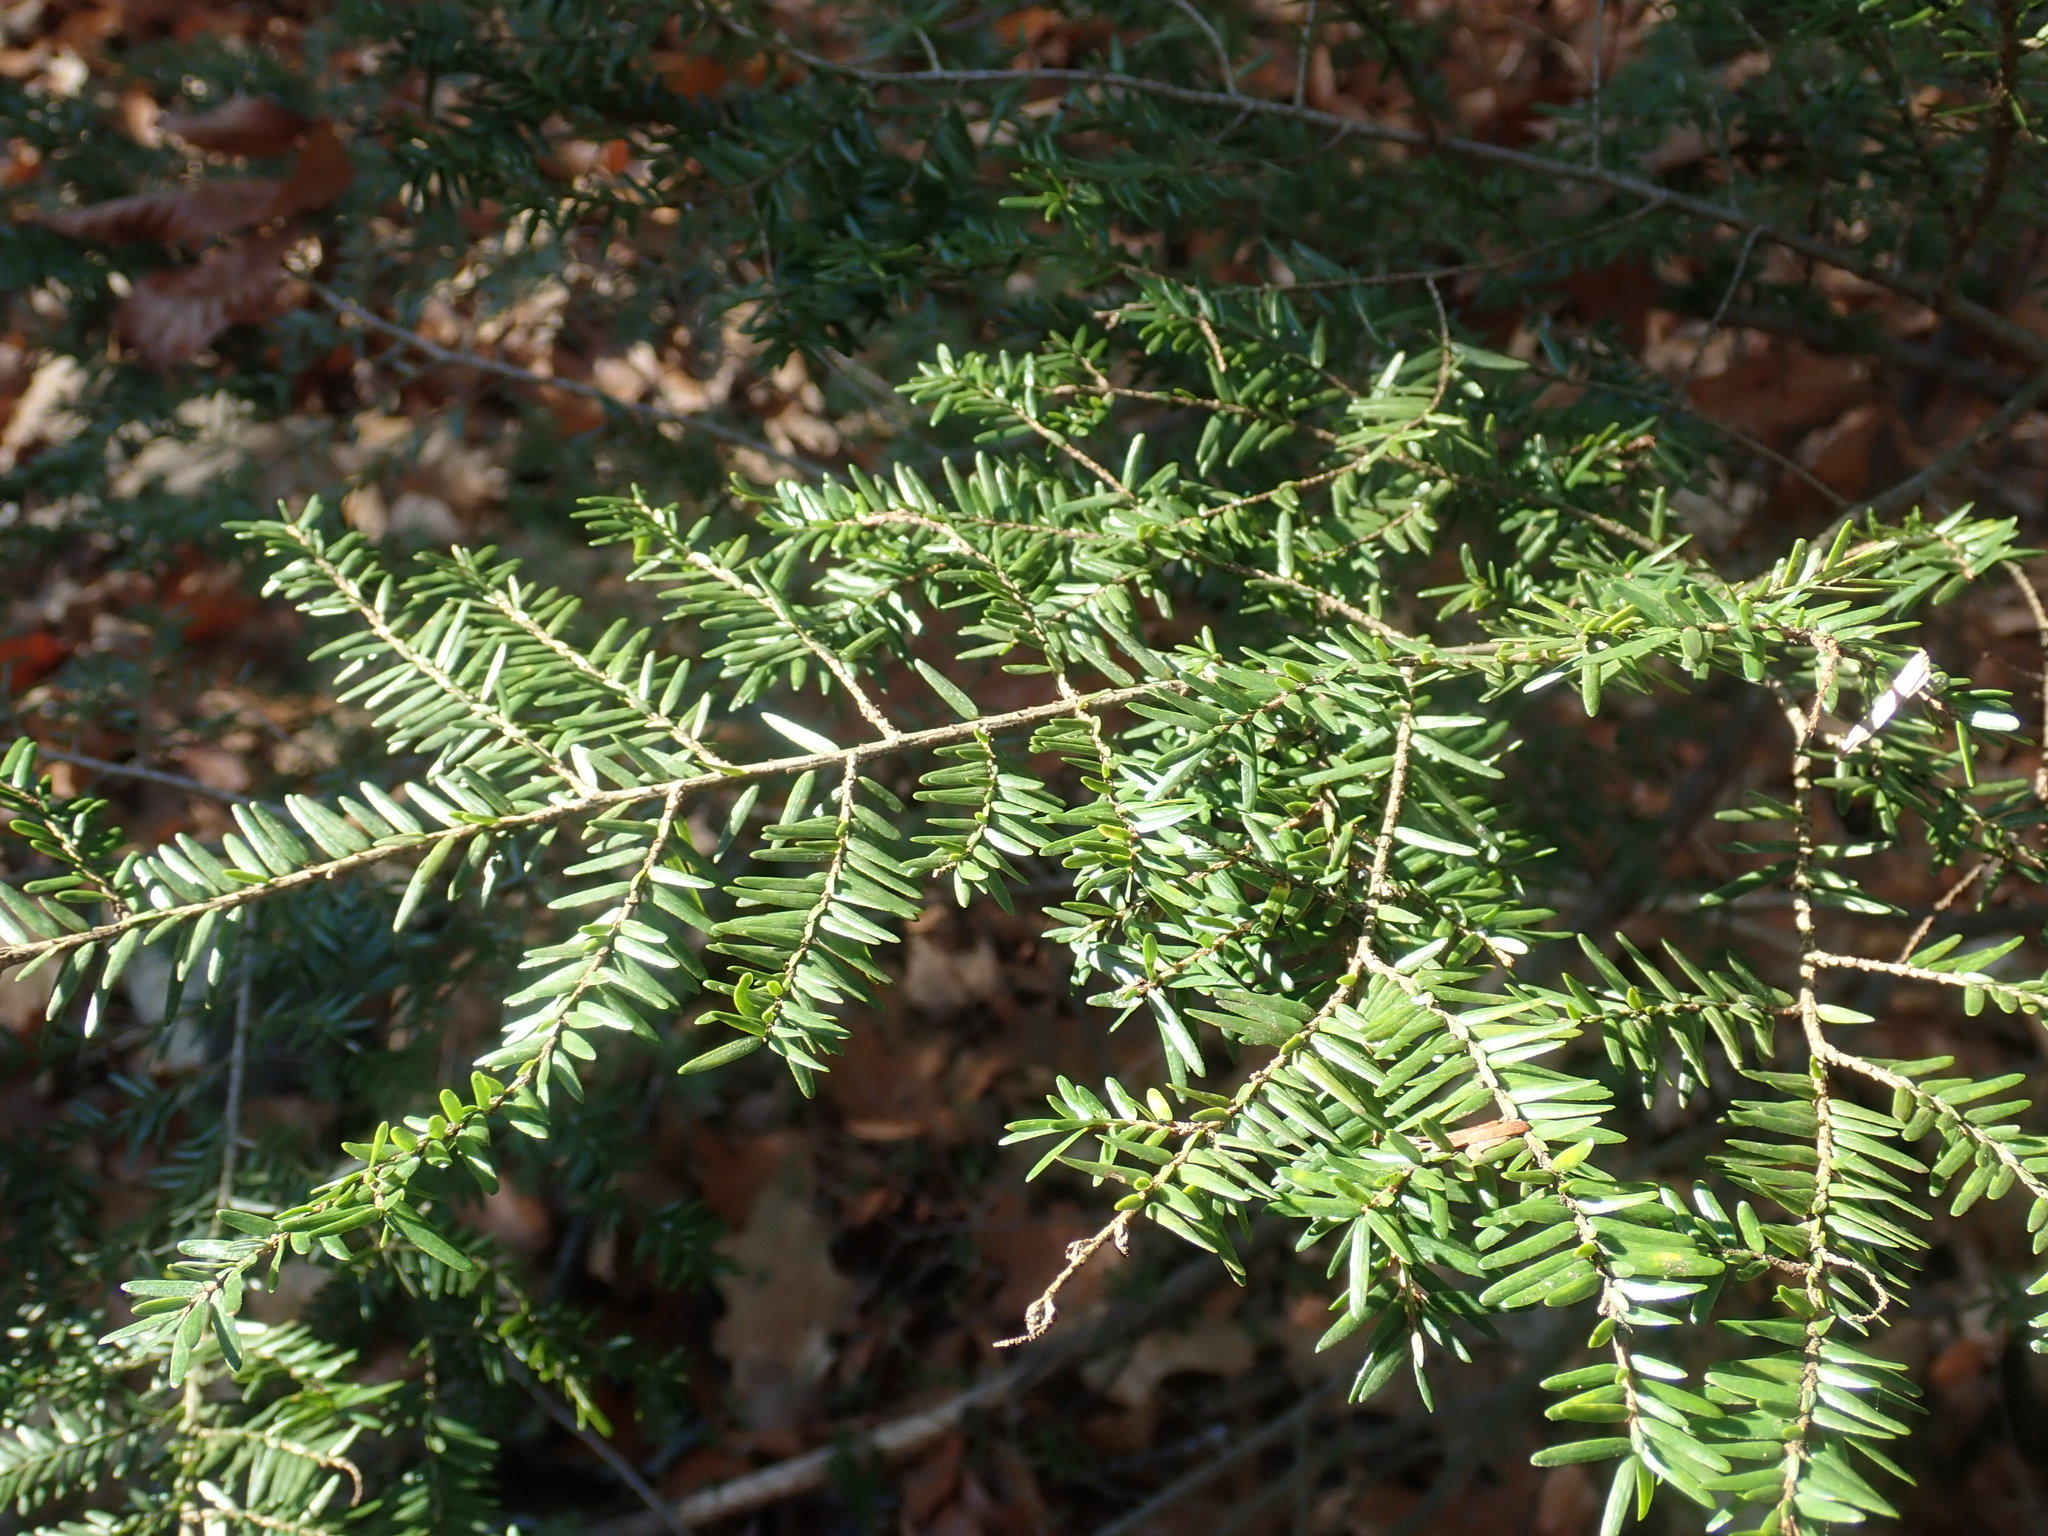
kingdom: Plantae
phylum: Tracheophyta
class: Pinopsida
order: Pinales
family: Pinaceae
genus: Tsuga
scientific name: Tsuga canadensis
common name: Eastern hemlock
